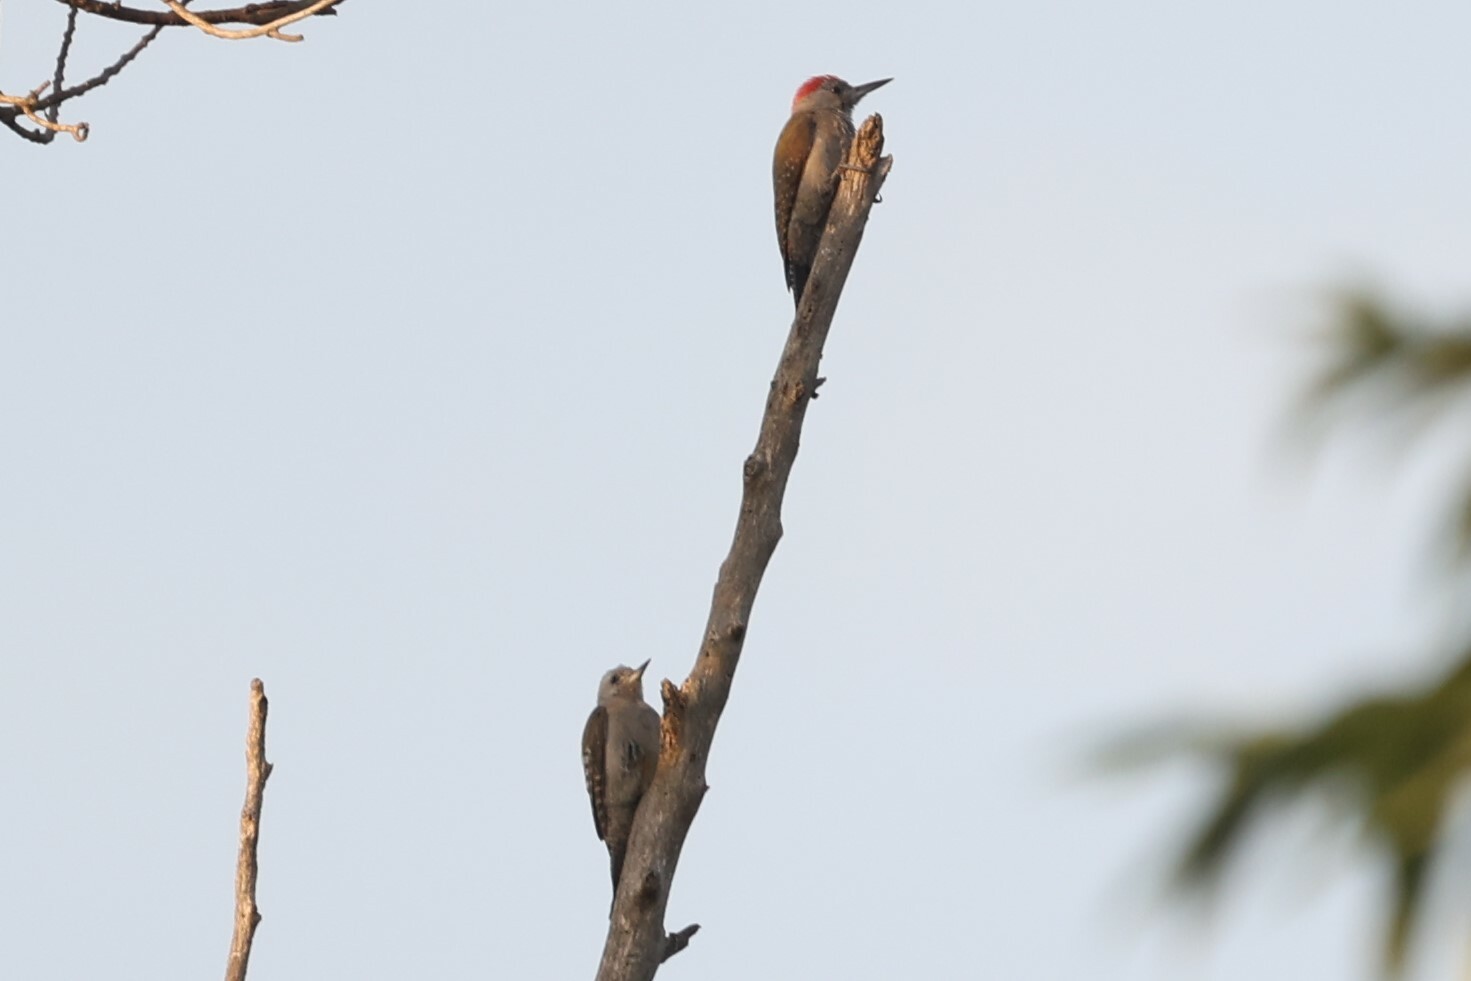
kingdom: Animalia
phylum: Chordata
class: Aves
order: Piciformes
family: Picidae
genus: Dendropicos
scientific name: Dendropicos goertae
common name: African grey woodpecker
